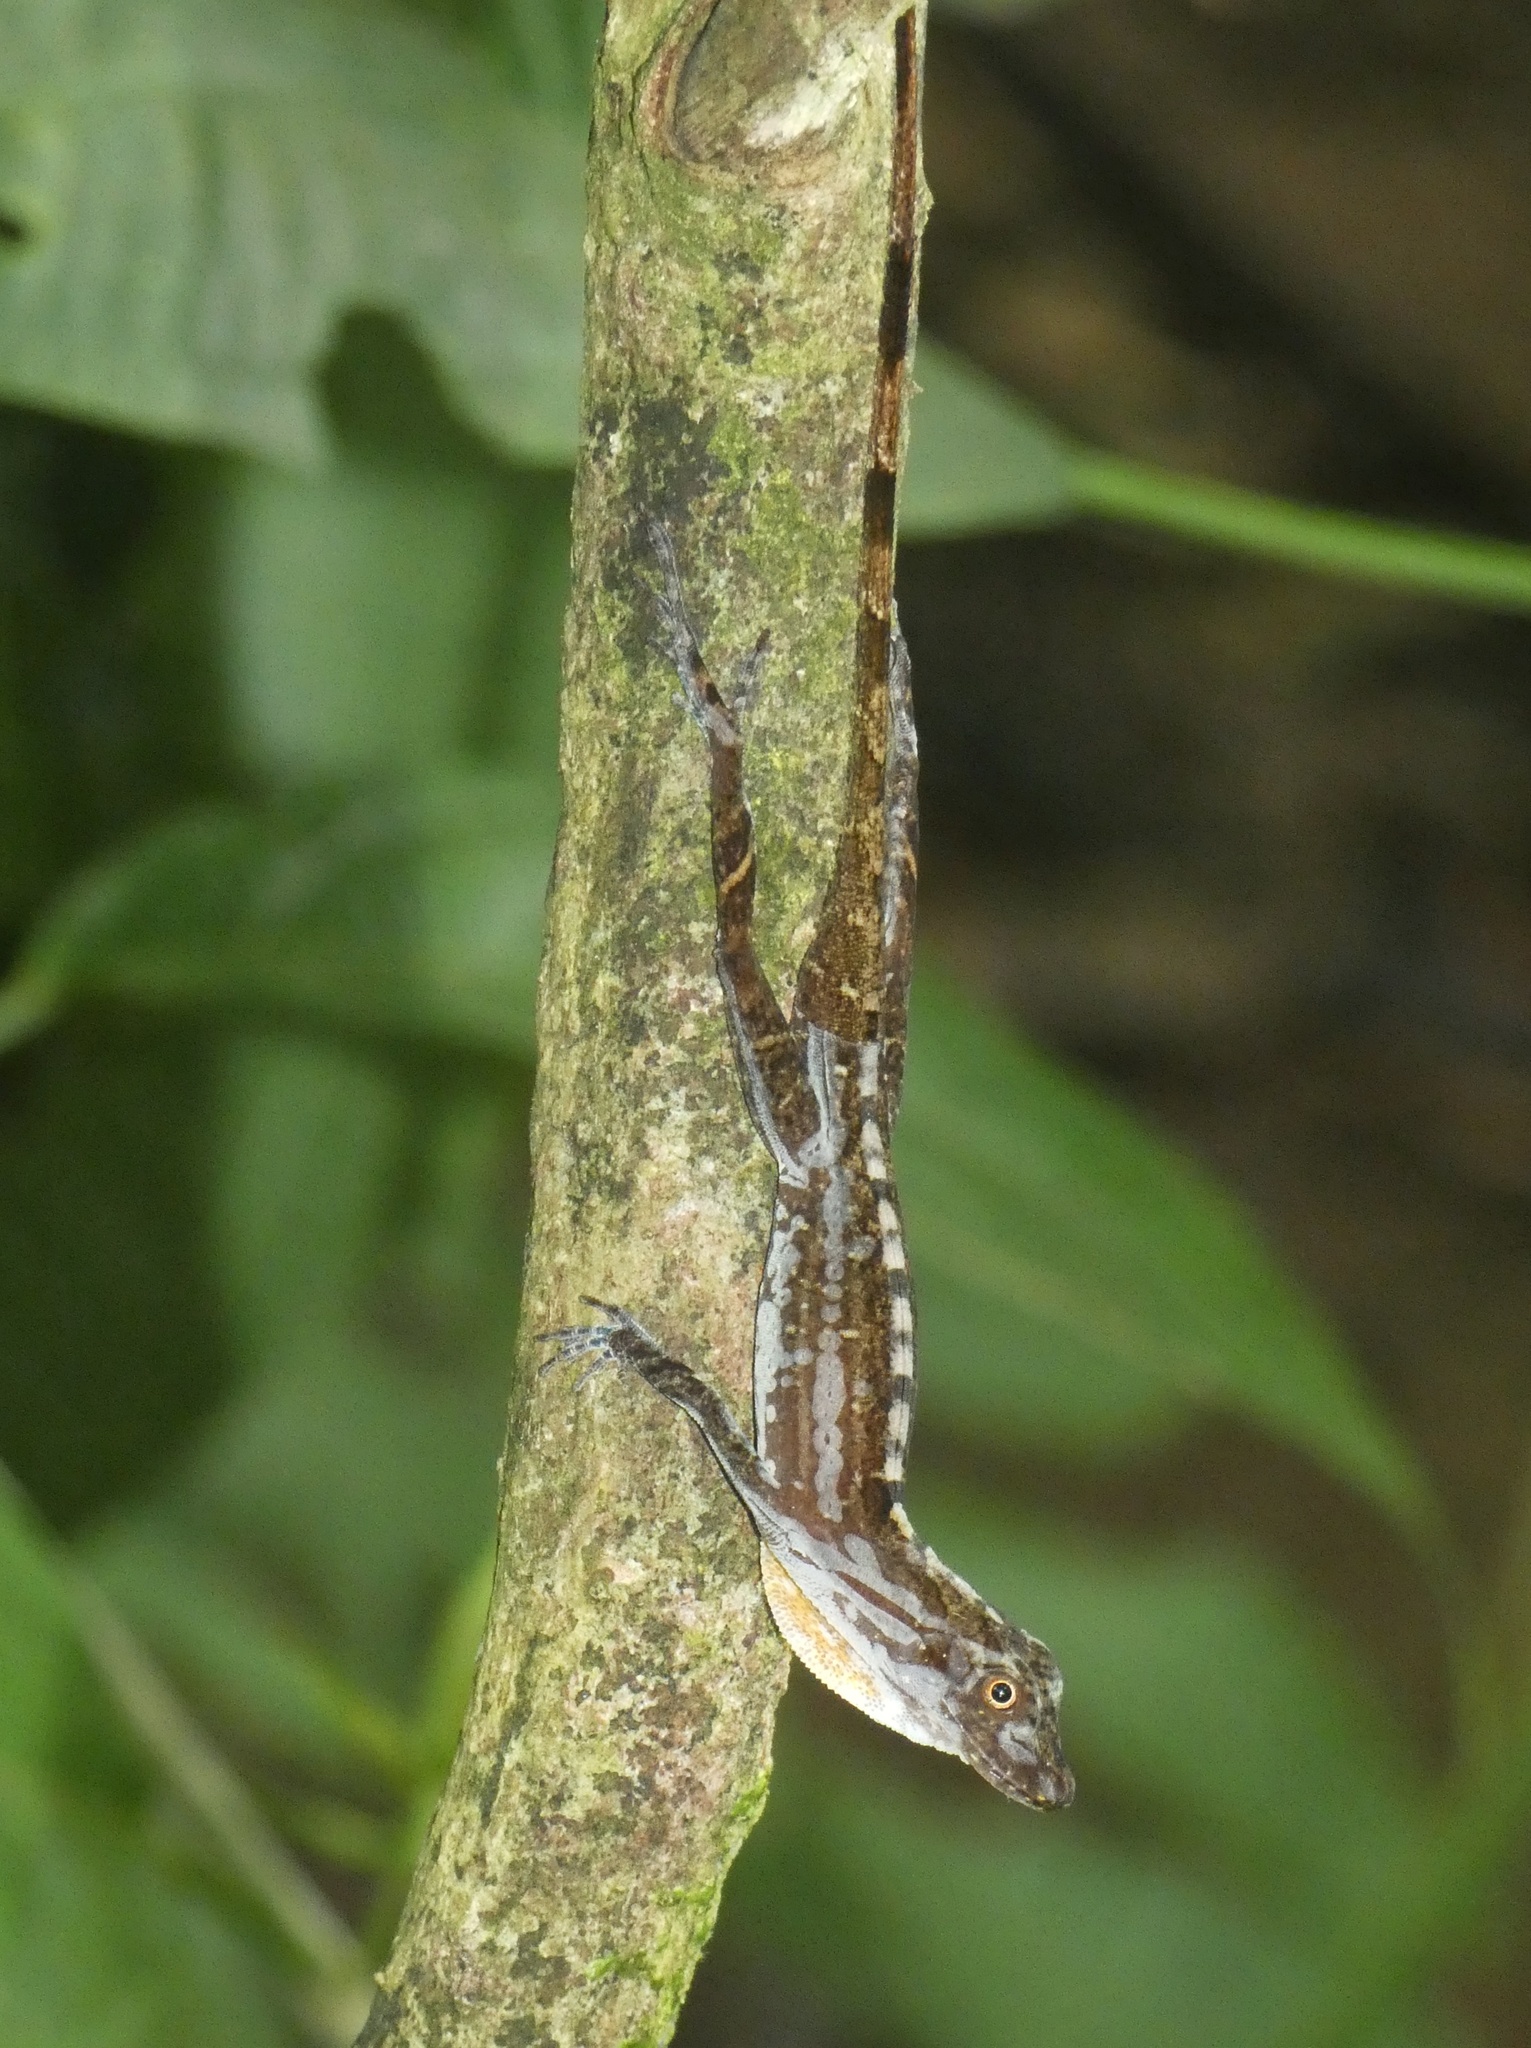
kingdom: Animalia
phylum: Chordata
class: Squamata
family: Dactyloidae
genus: Anolis
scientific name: Anolis apletophallus
